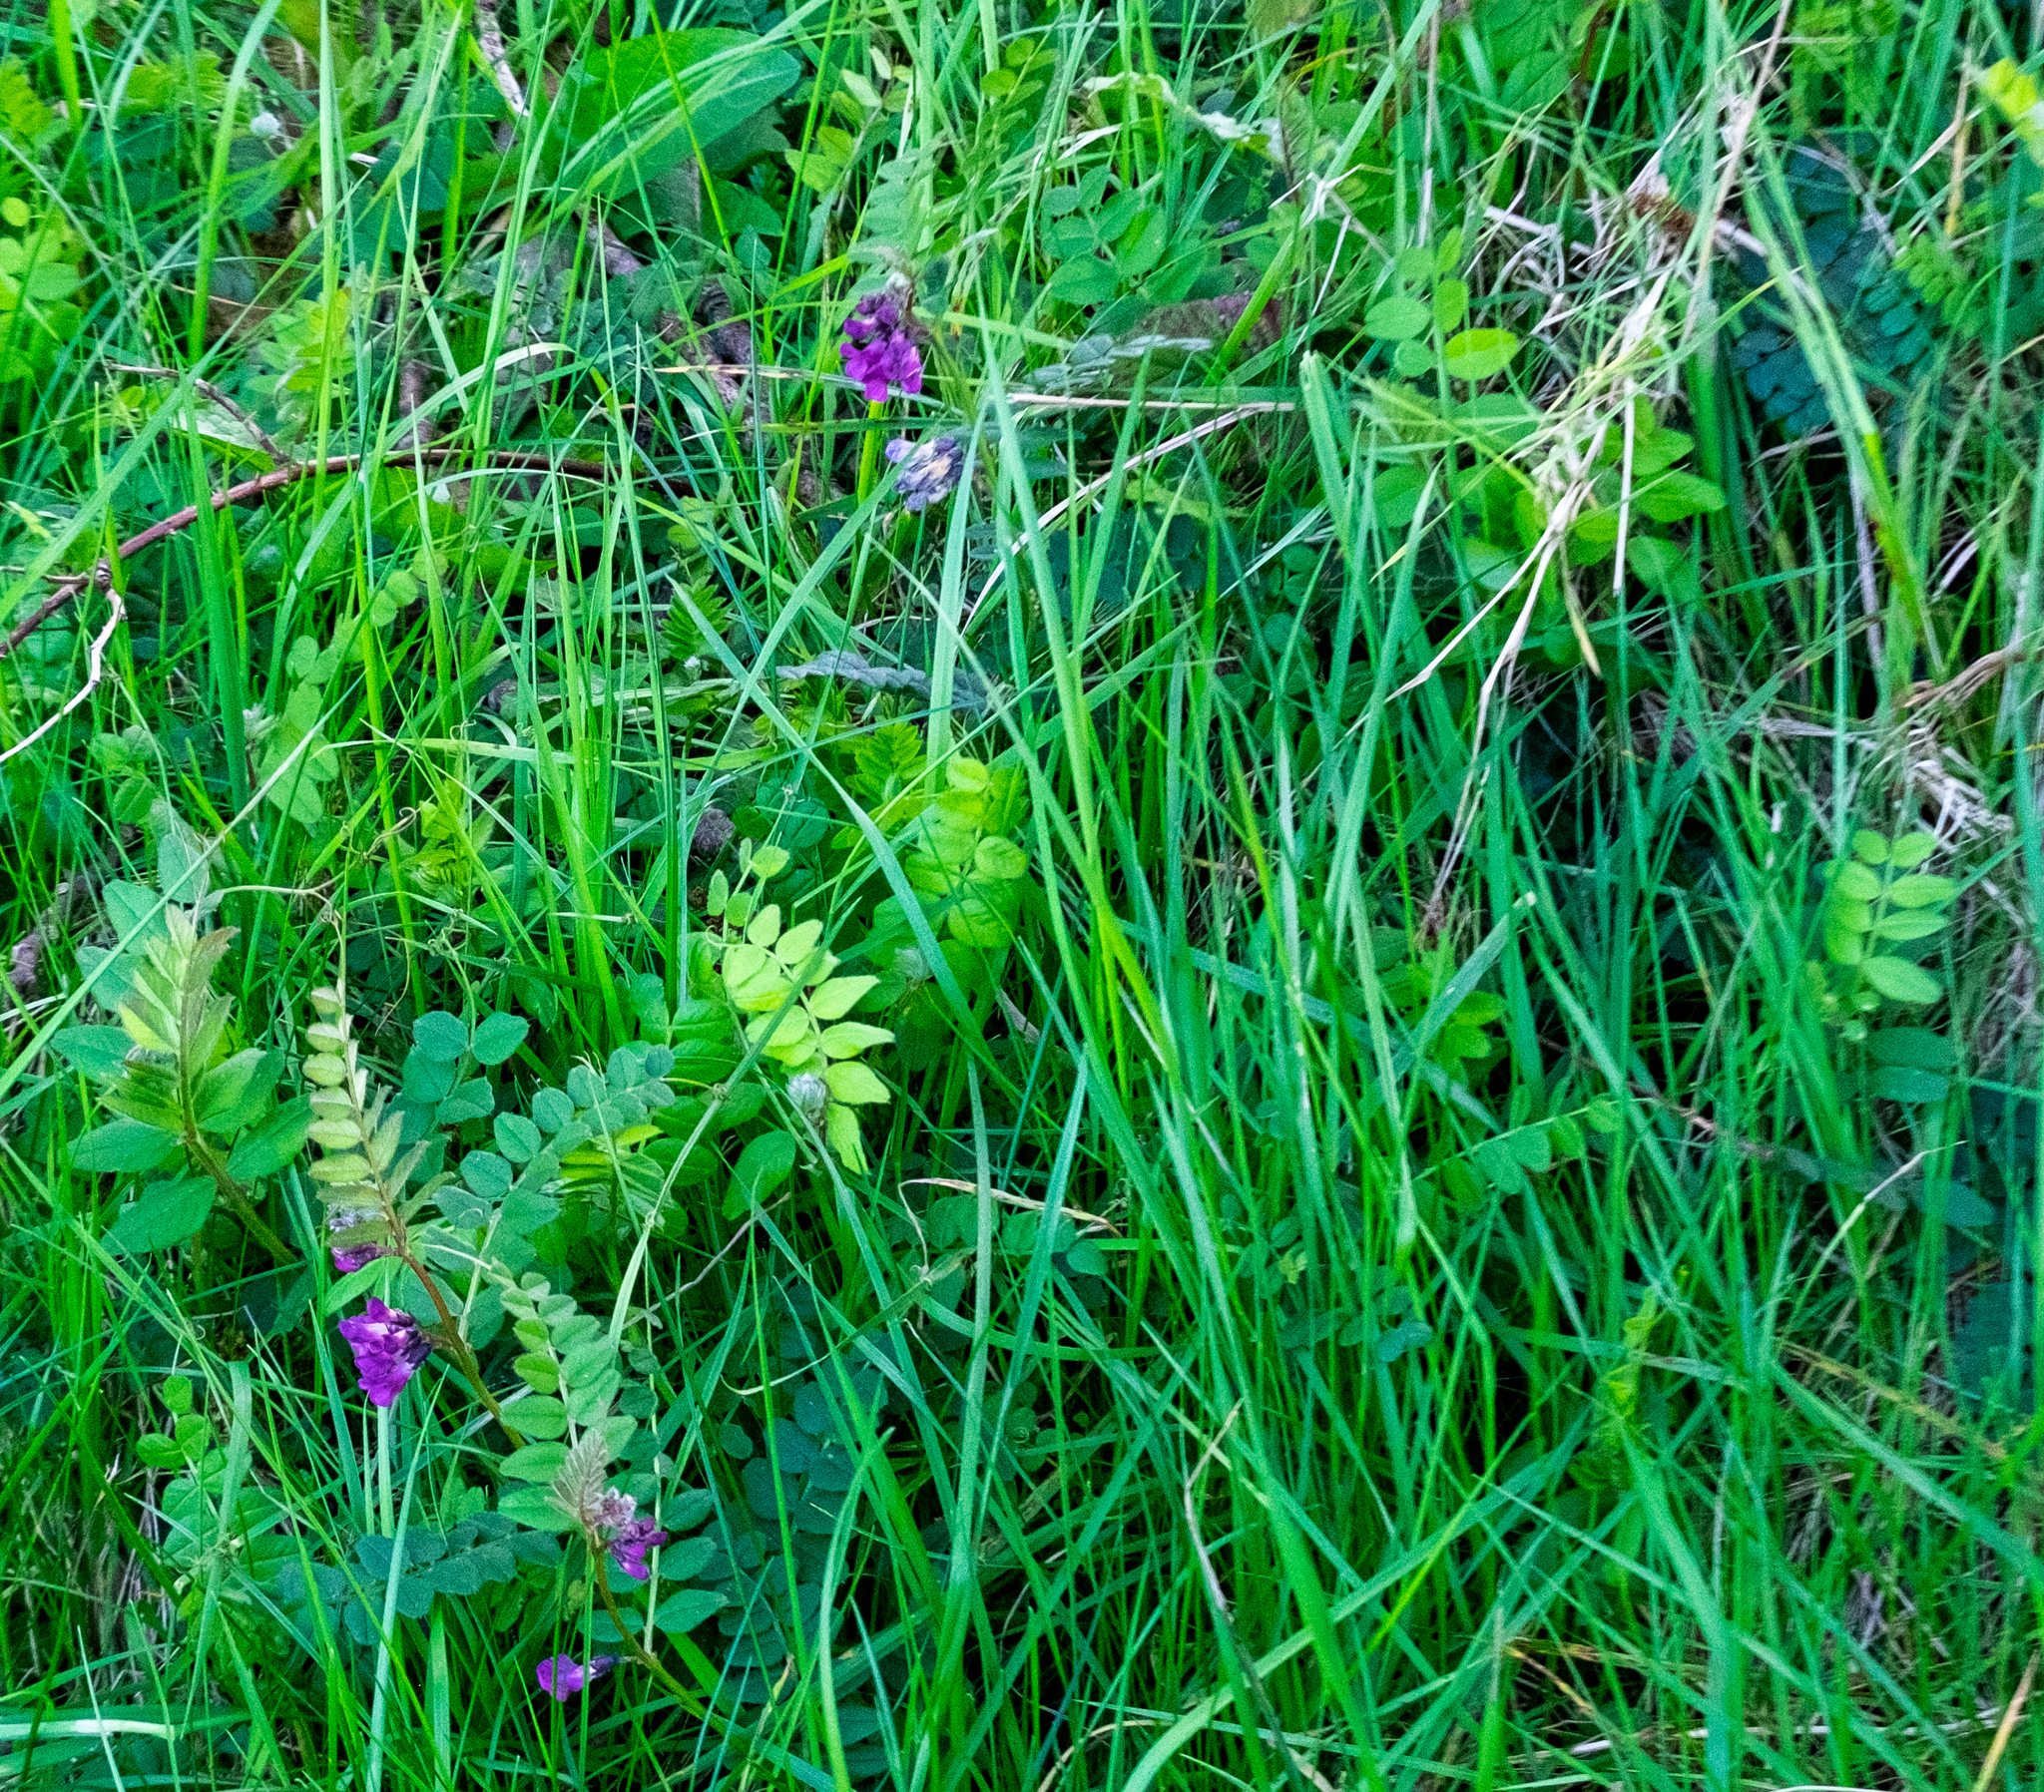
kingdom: Plantae
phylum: Tracheophyta
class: Magnoliopsida
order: Fabales
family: Fabaceae
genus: Vicia
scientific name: Vicia sepium
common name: Bush vetch
